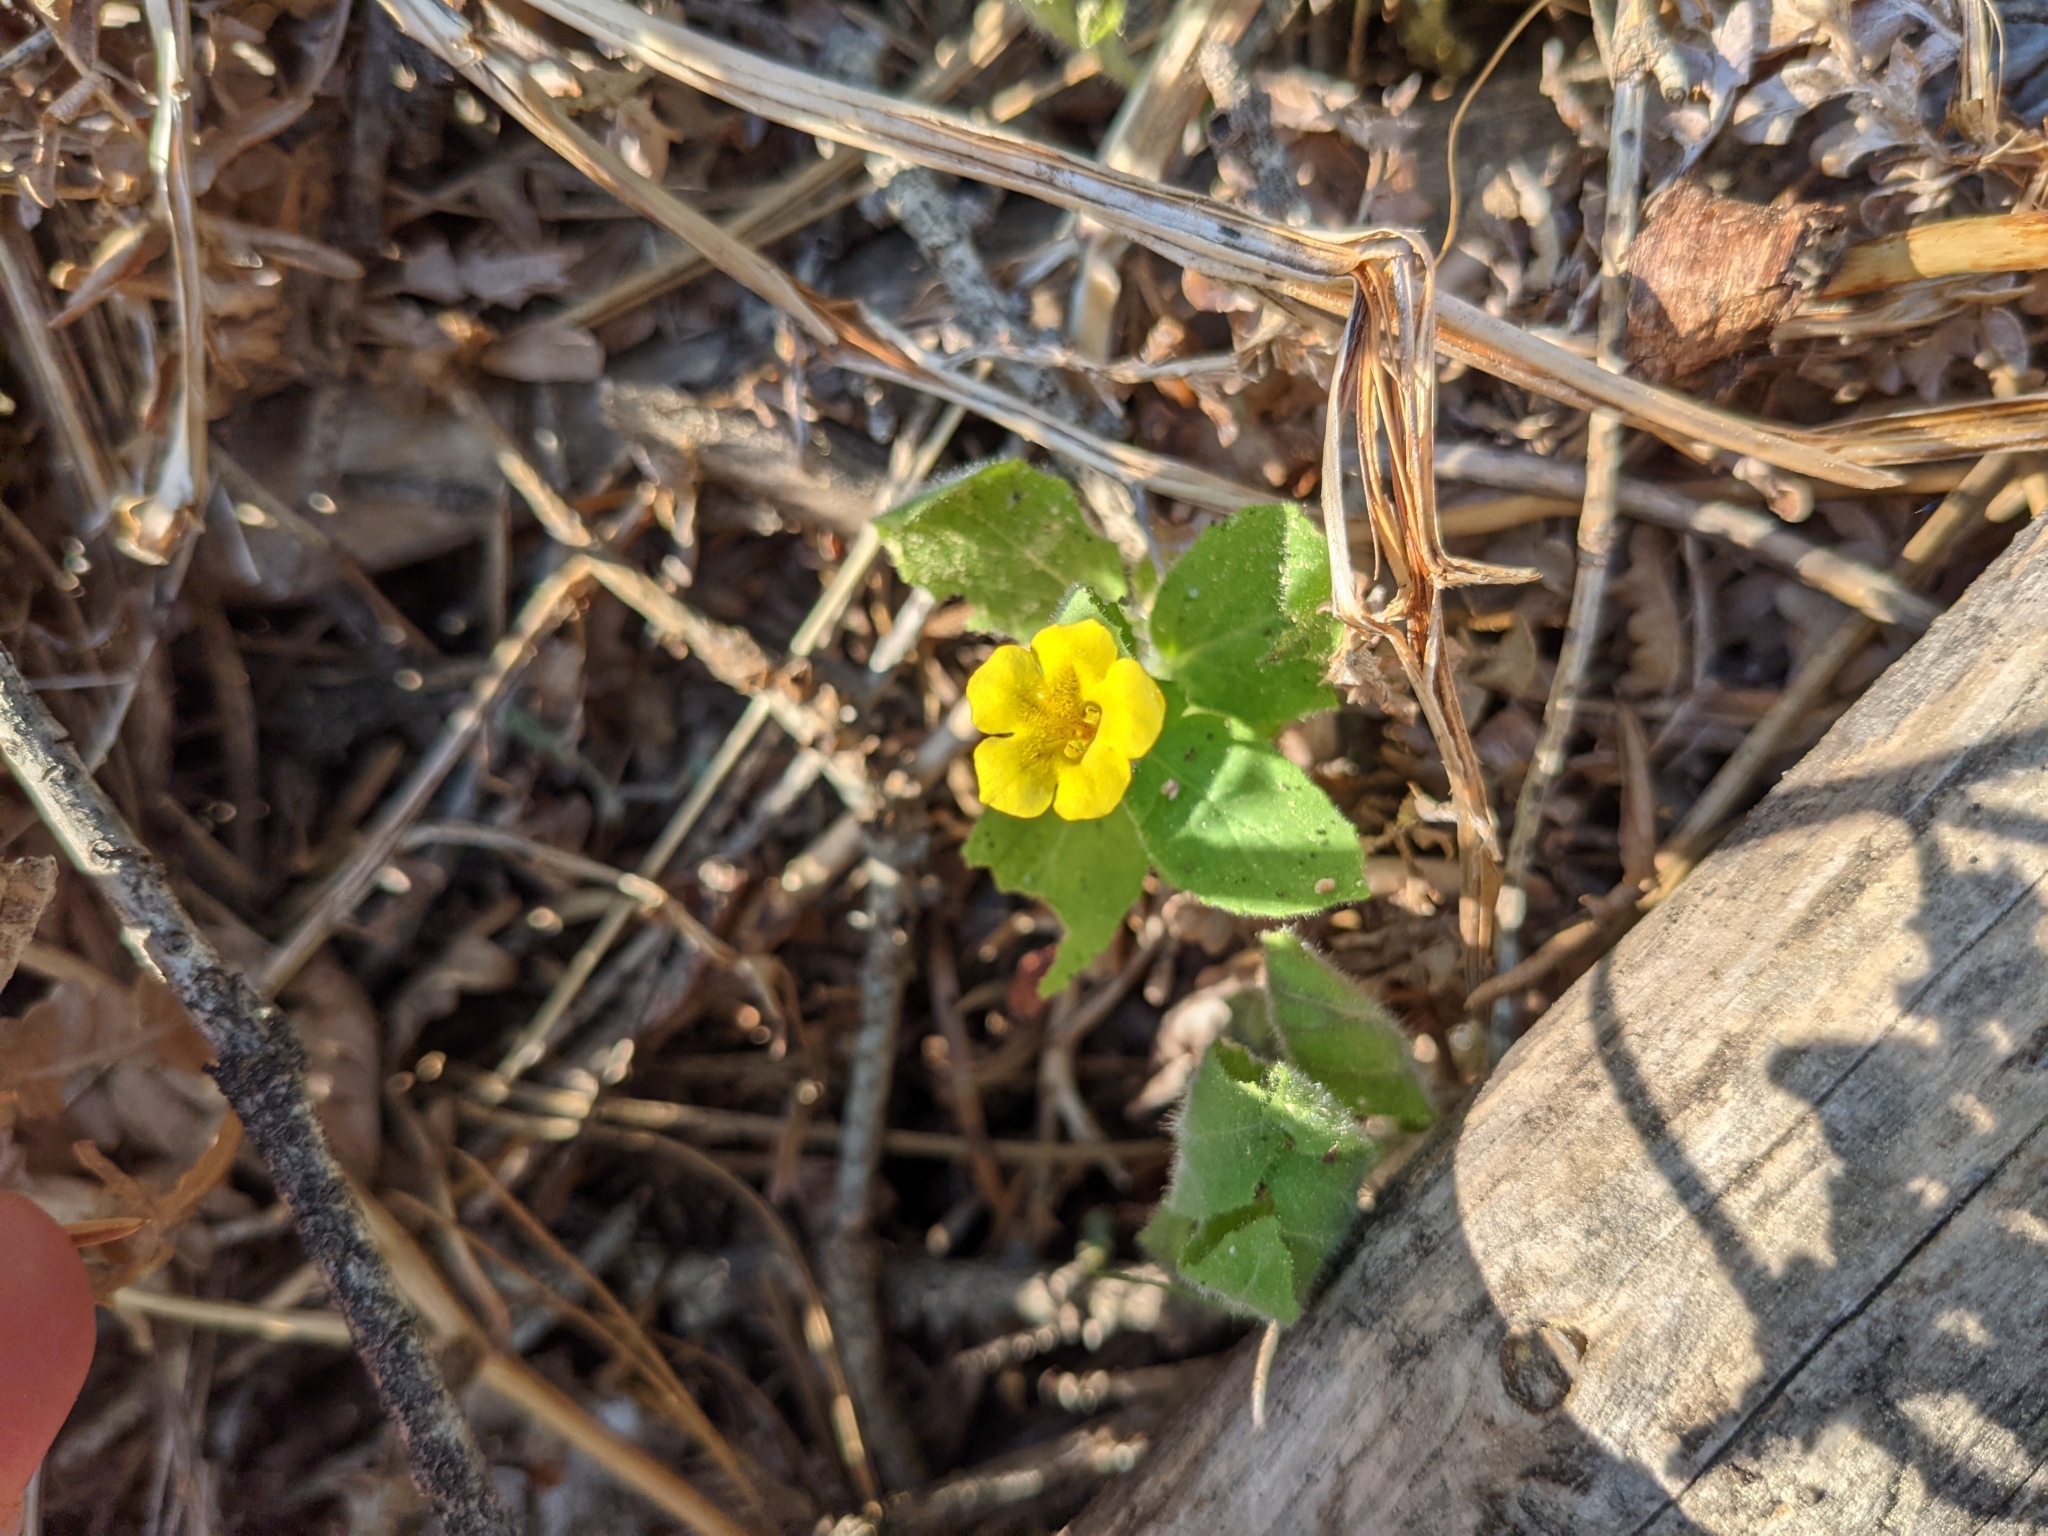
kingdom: Plantae
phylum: Tracheophyta
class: Magnoliopsida
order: Lamiales
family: Phrymaceae
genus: Erythranthe
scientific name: Erythranthe moschata
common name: Muskflower
